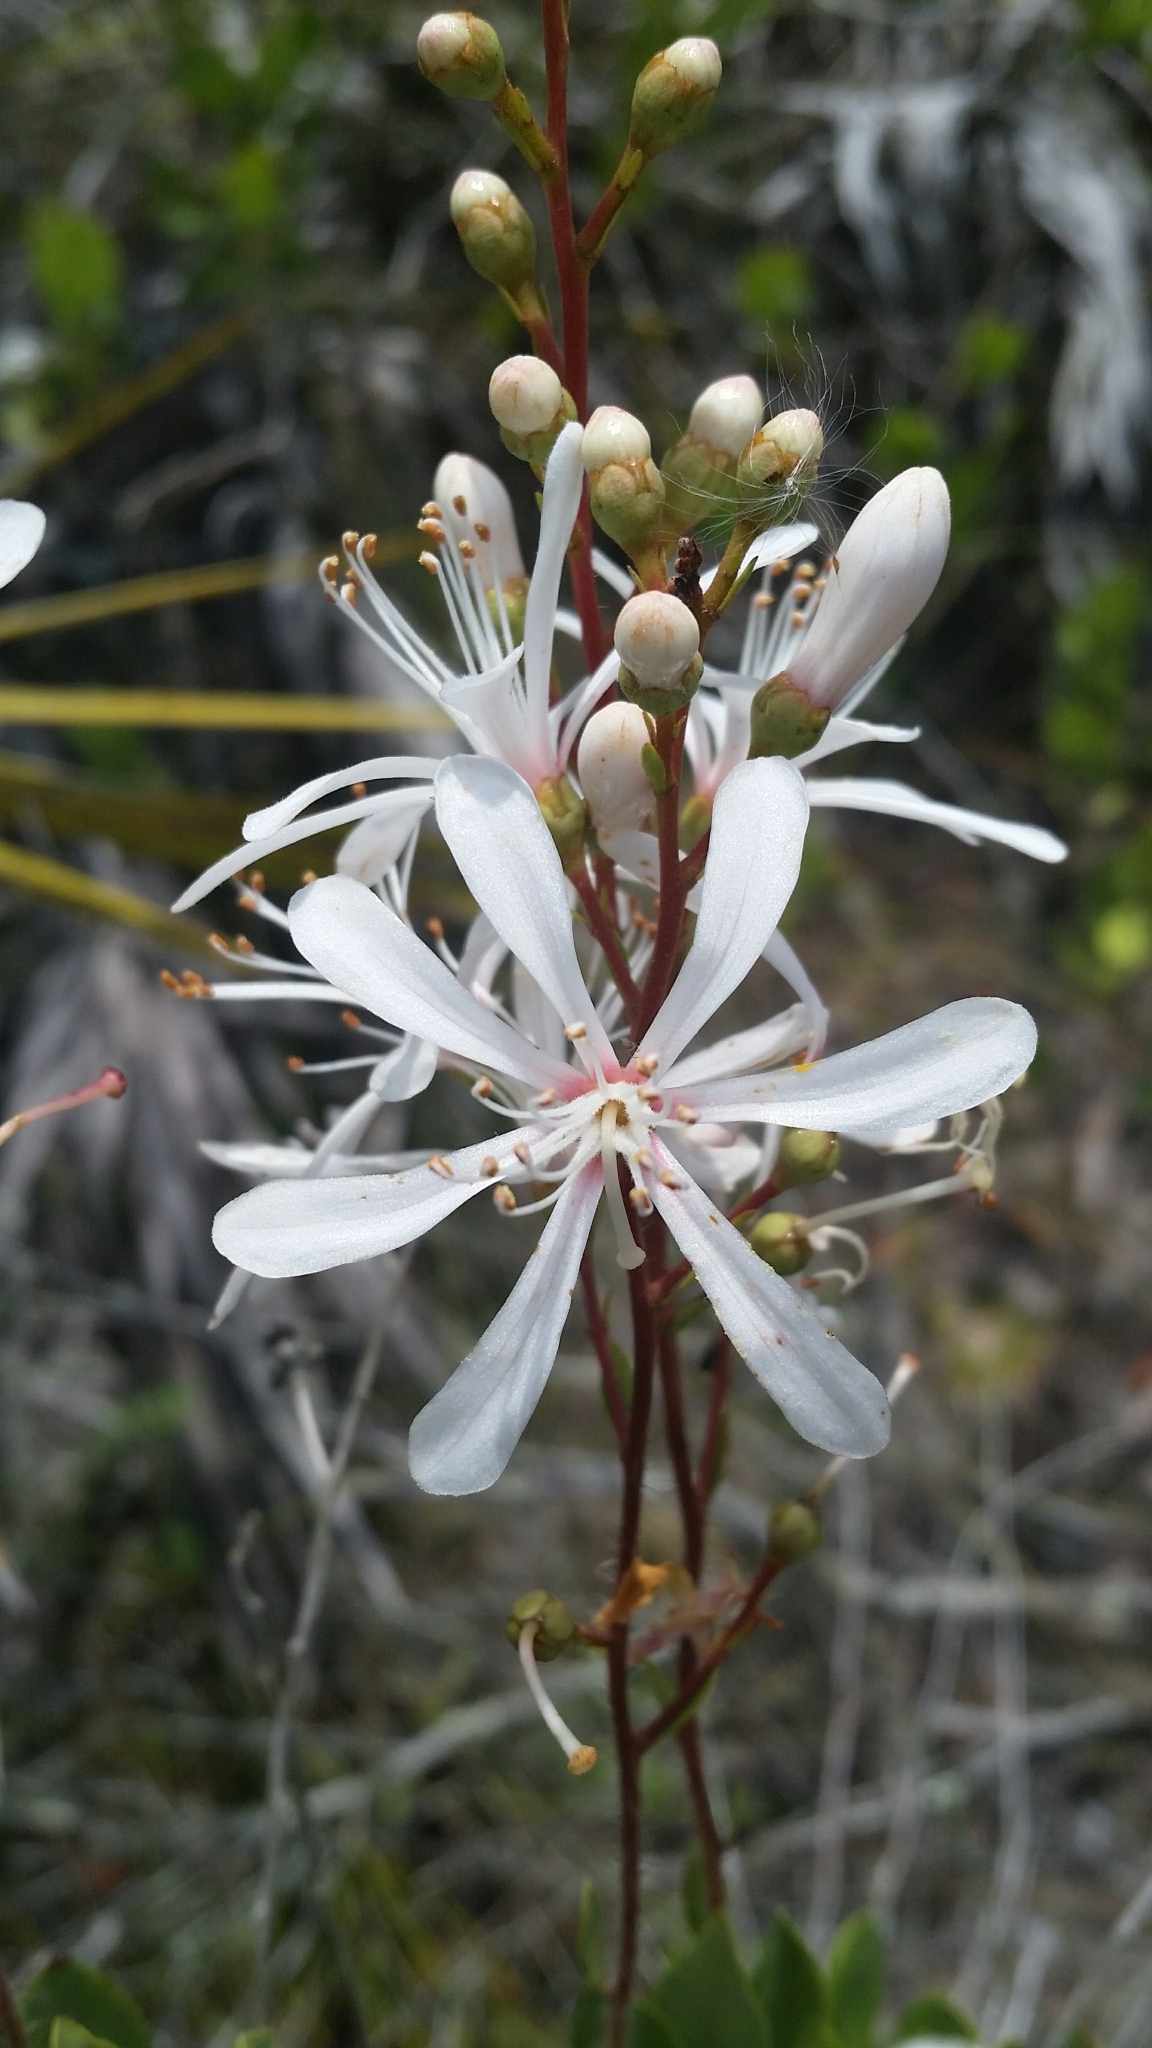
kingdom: Plantae
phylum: Tracheophyta
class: Magnoliopsida
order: Ericales
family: Ericaceae
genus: Bejaria
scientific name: Bejaria racemosa
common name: Tarflower
